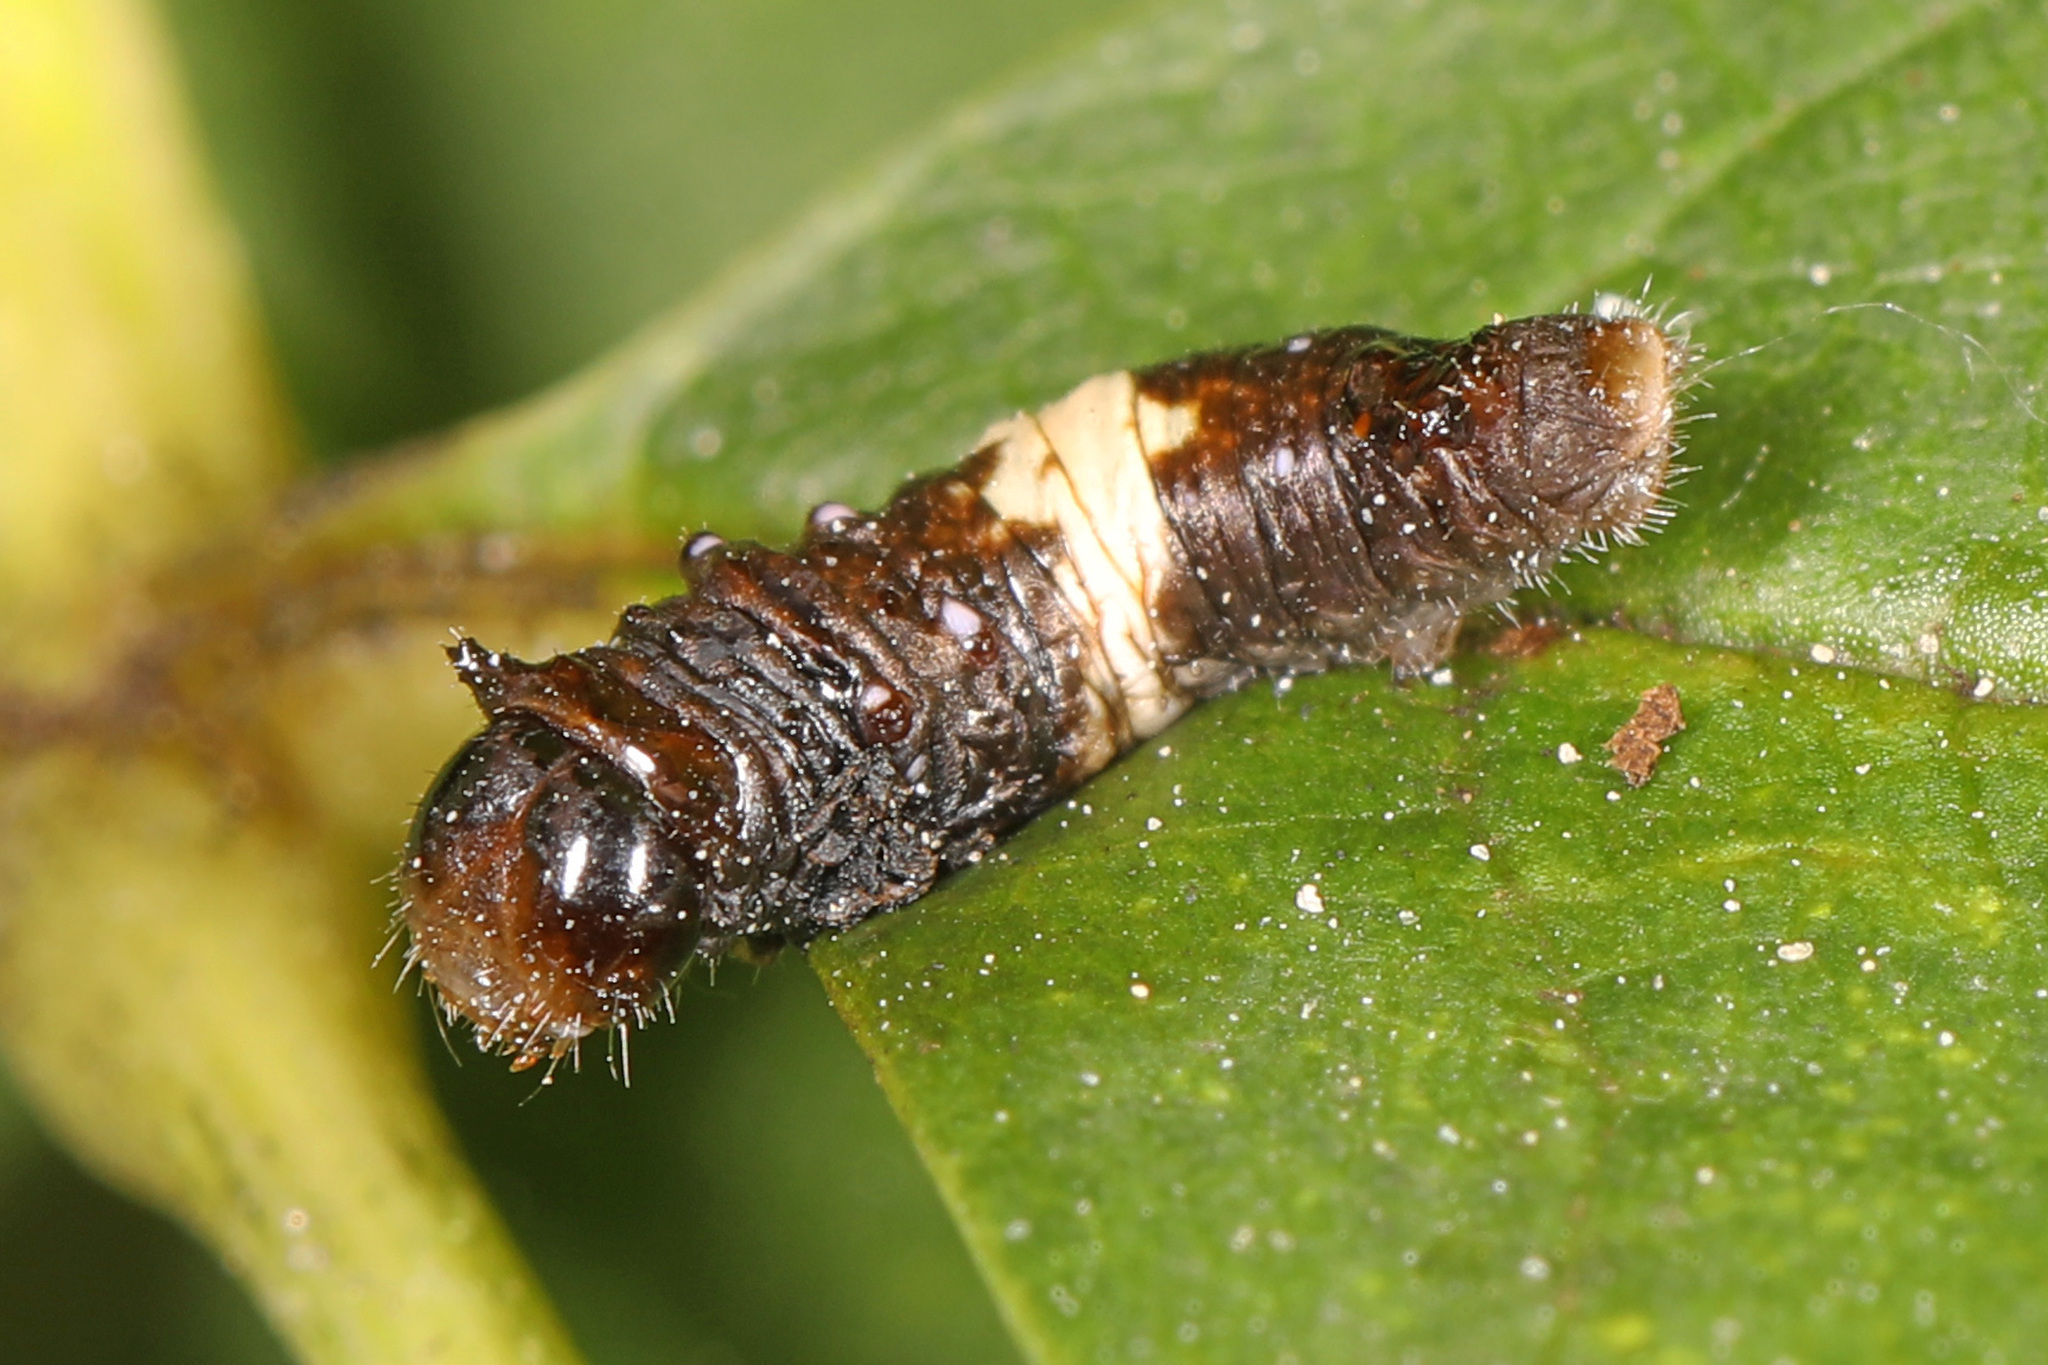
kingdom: Animalia
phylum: Arthropoda
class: Insecta
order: Lepidoptera
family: Papilionidae
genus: Papilio
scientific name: Papilio glaucus
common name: Tiger swallowtail
